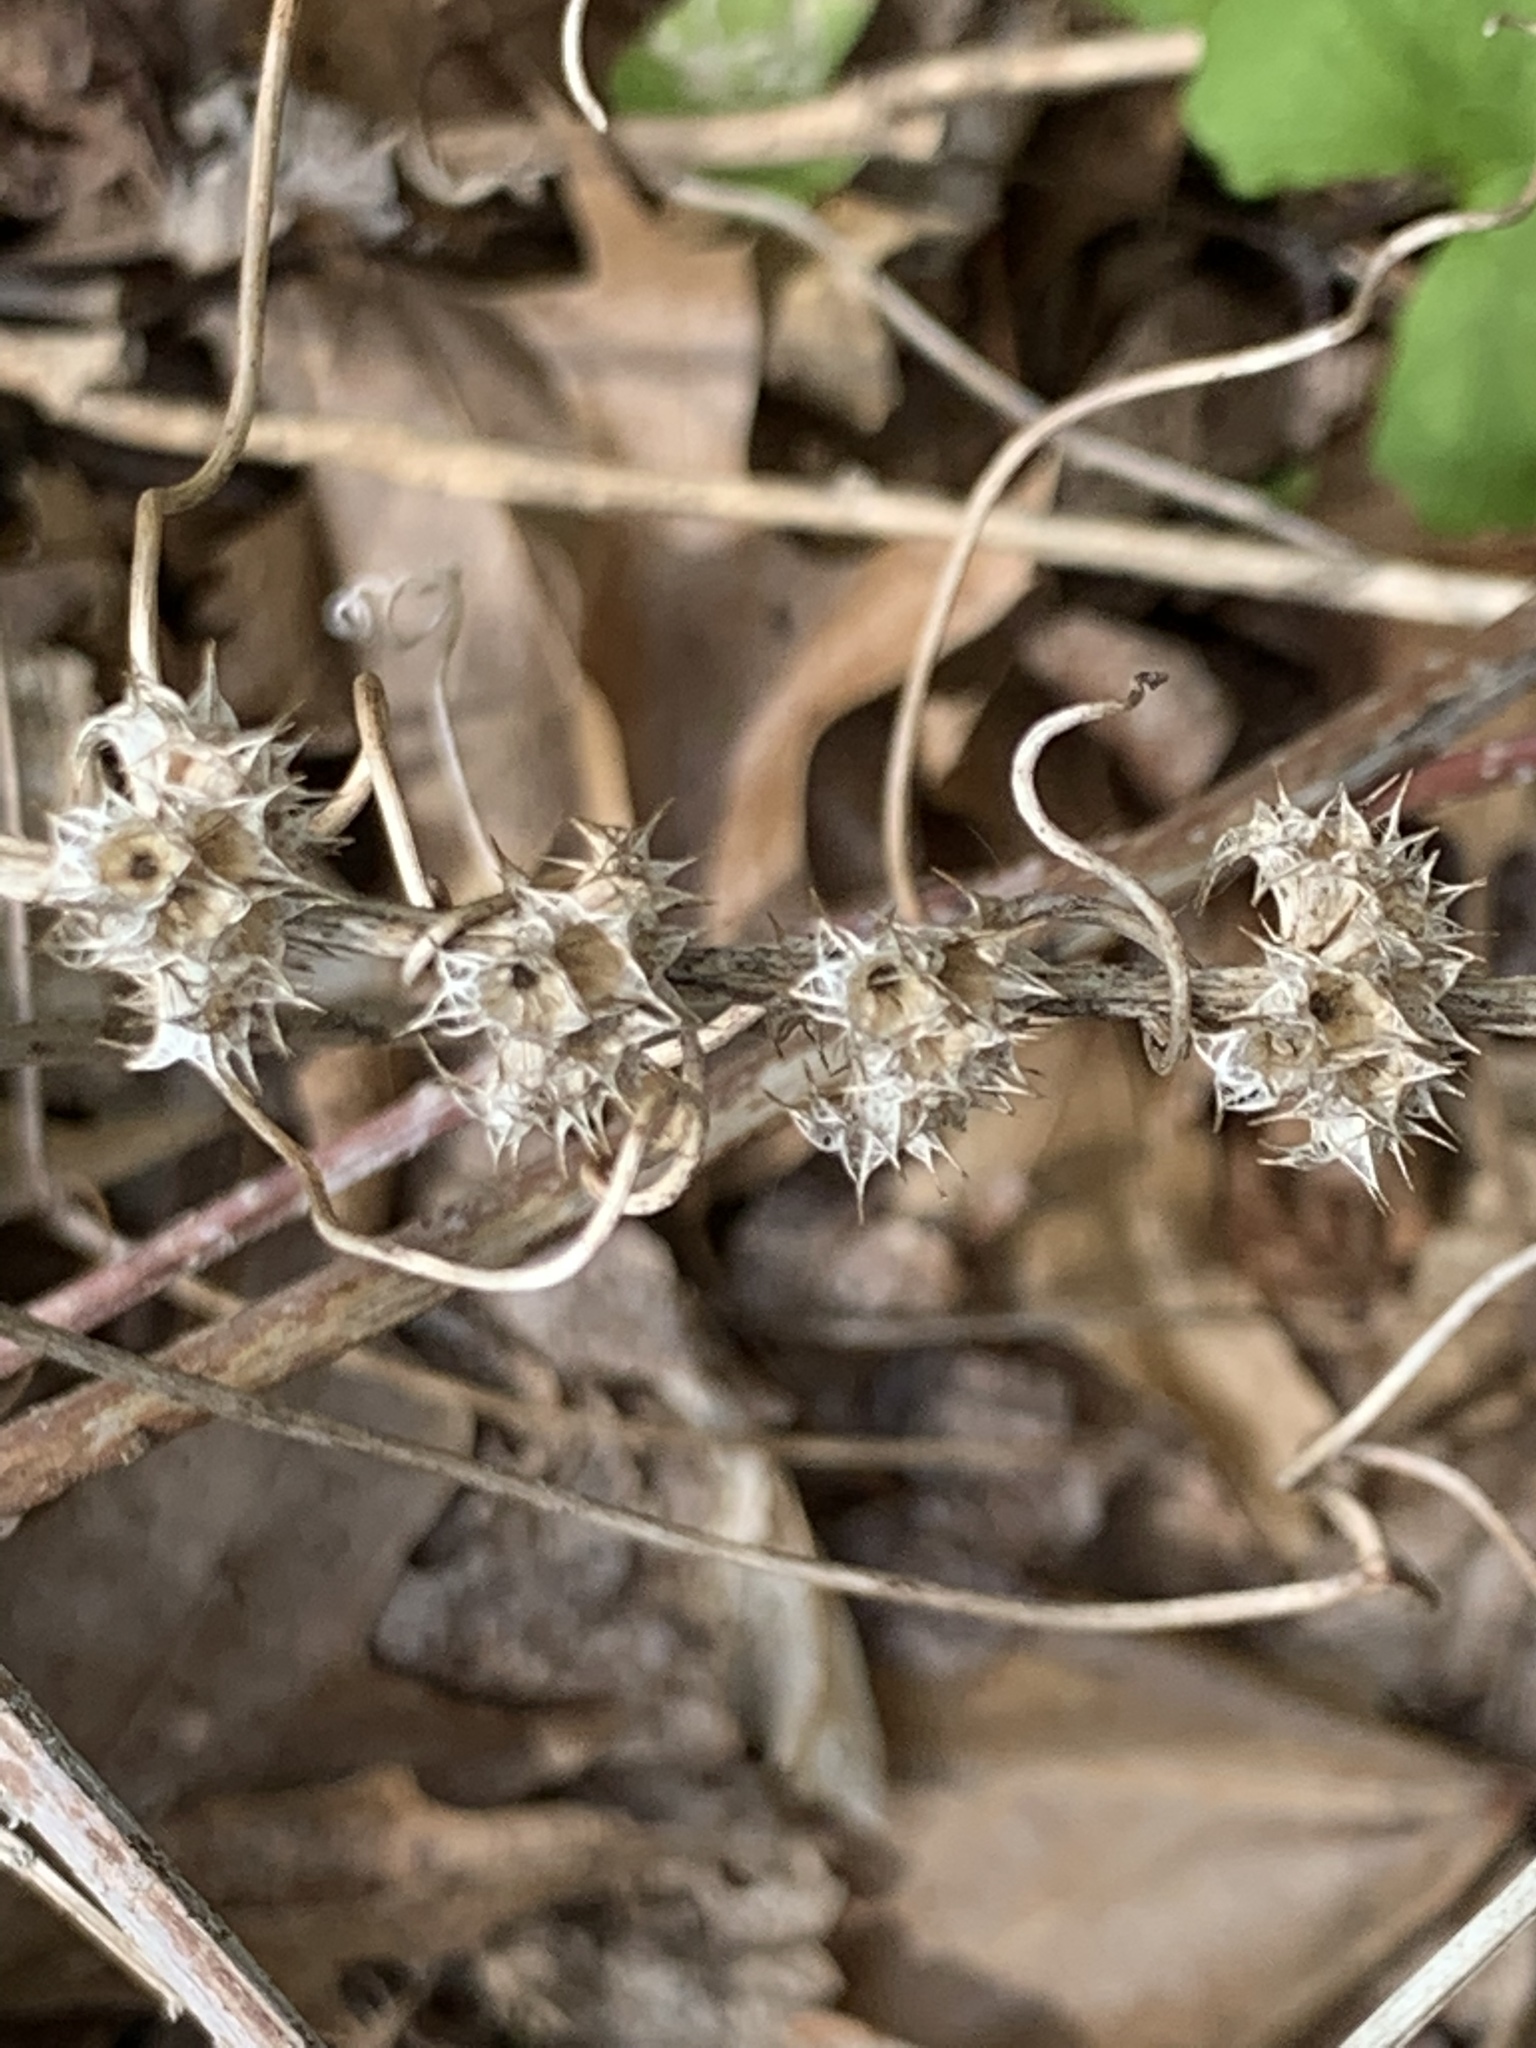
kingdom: Plantae
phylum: Tracheophyta
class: Magnoliopsida
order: Lamiales
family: Lamiaceae
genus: Leonurus
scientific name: Leonurus cardiaca
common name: Motherwort
